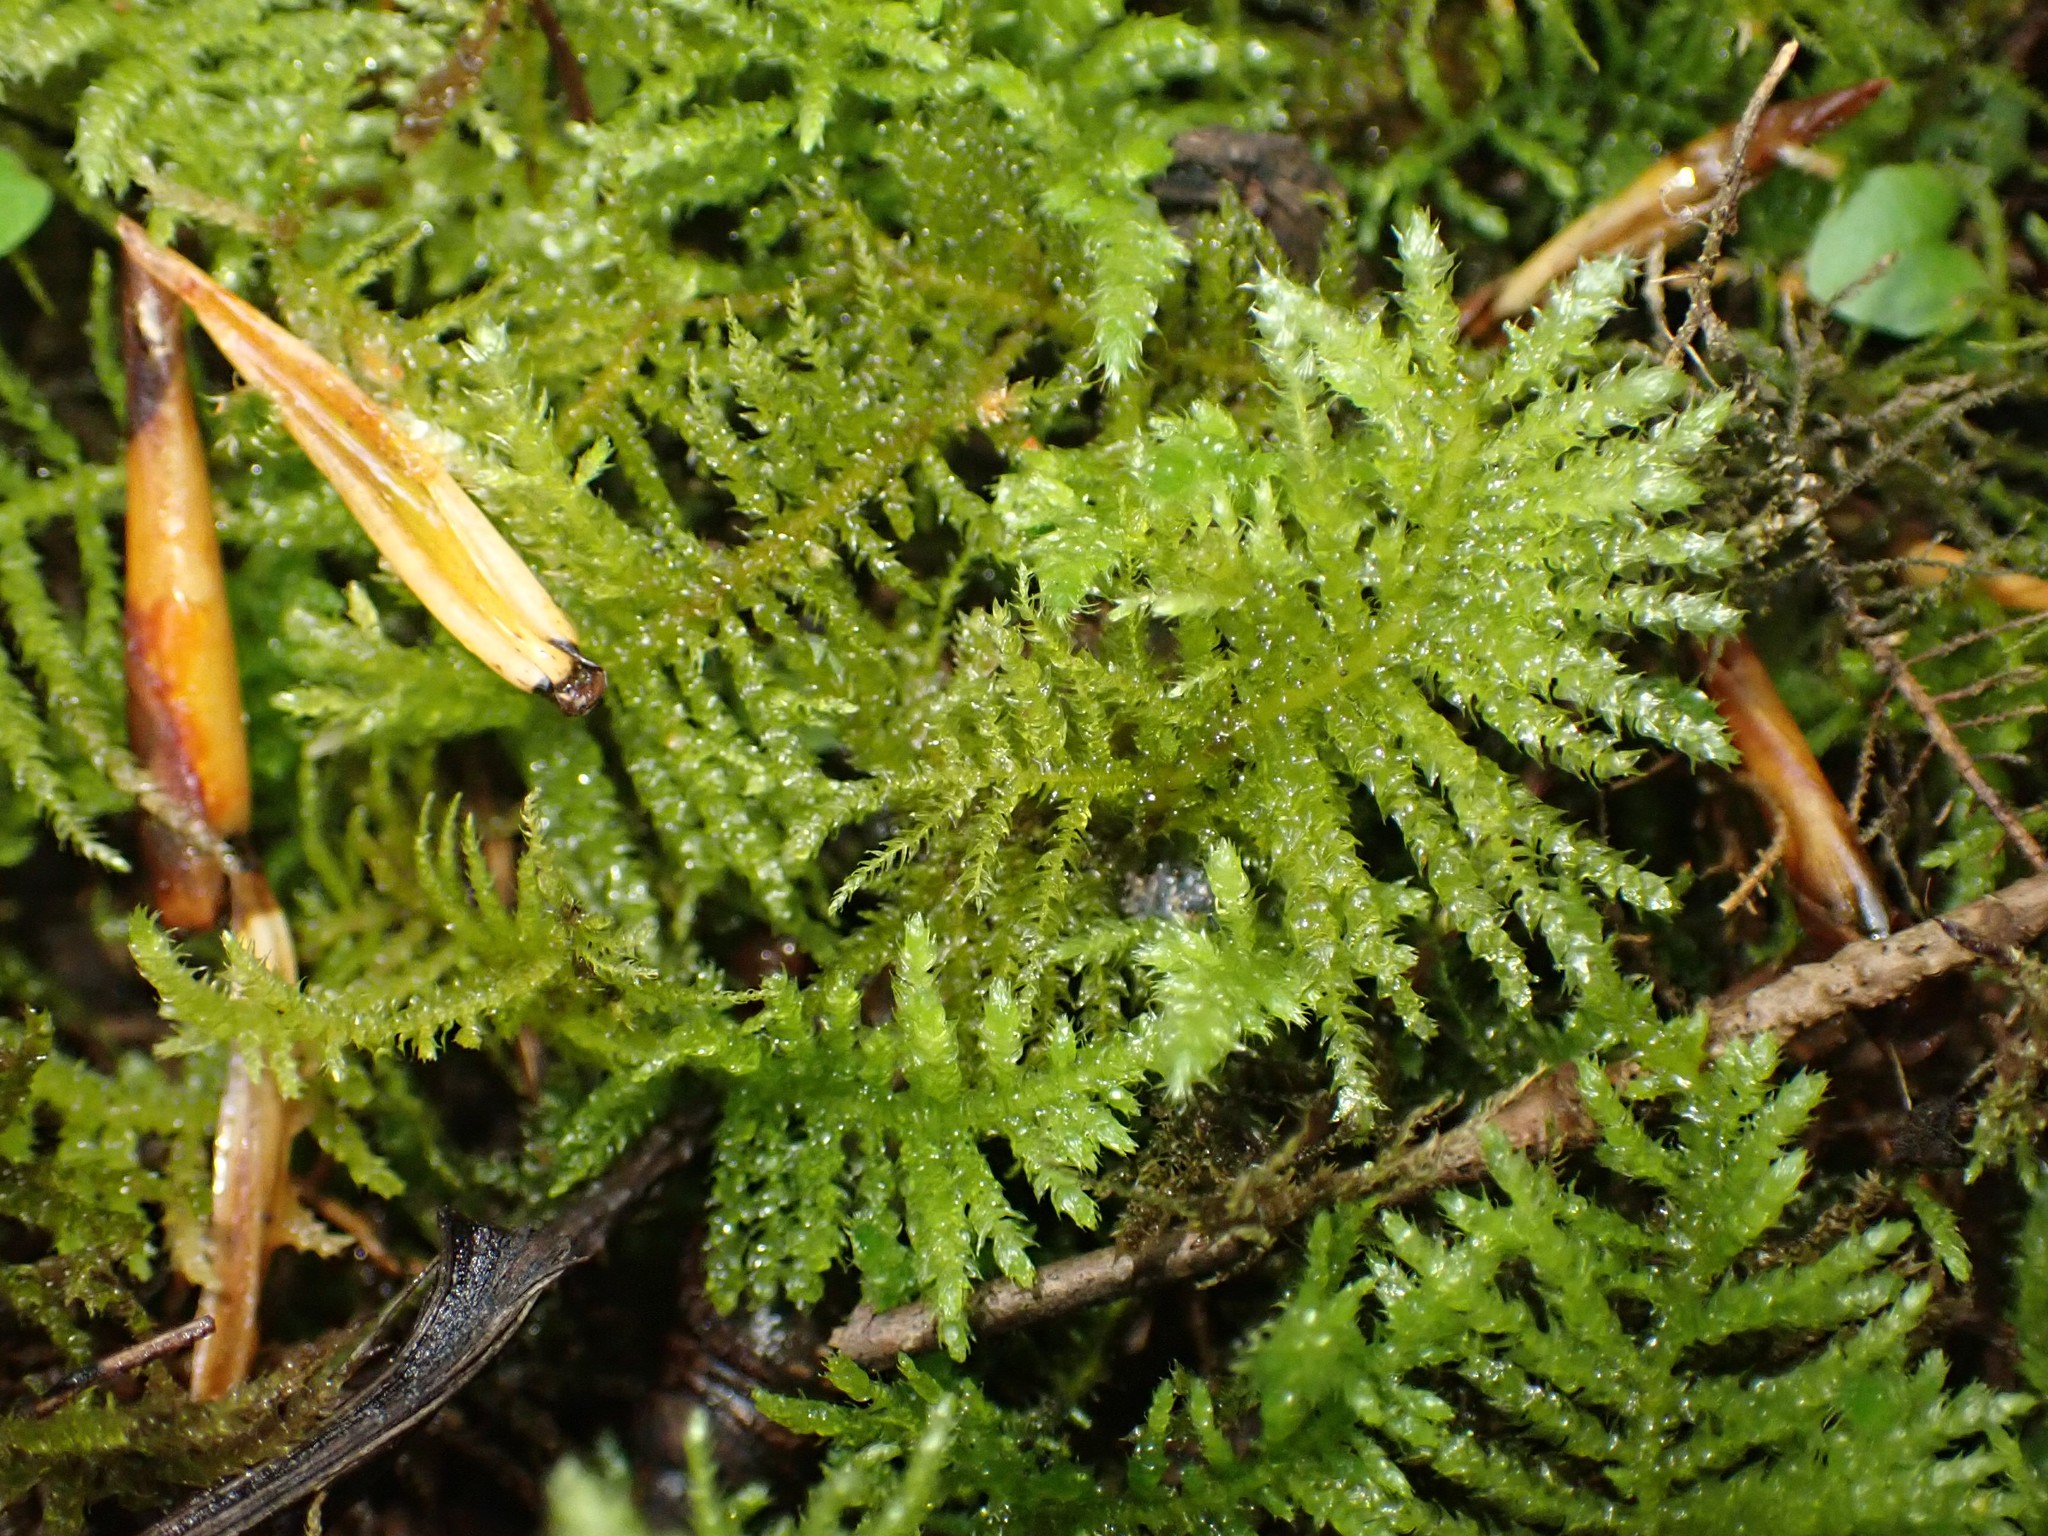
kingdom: Plantae
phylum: Bryophyta
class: Bryopsida
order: Hypnales
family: Brachytheciaceae
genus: Kindbergia
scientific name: Kindbergia oregana
